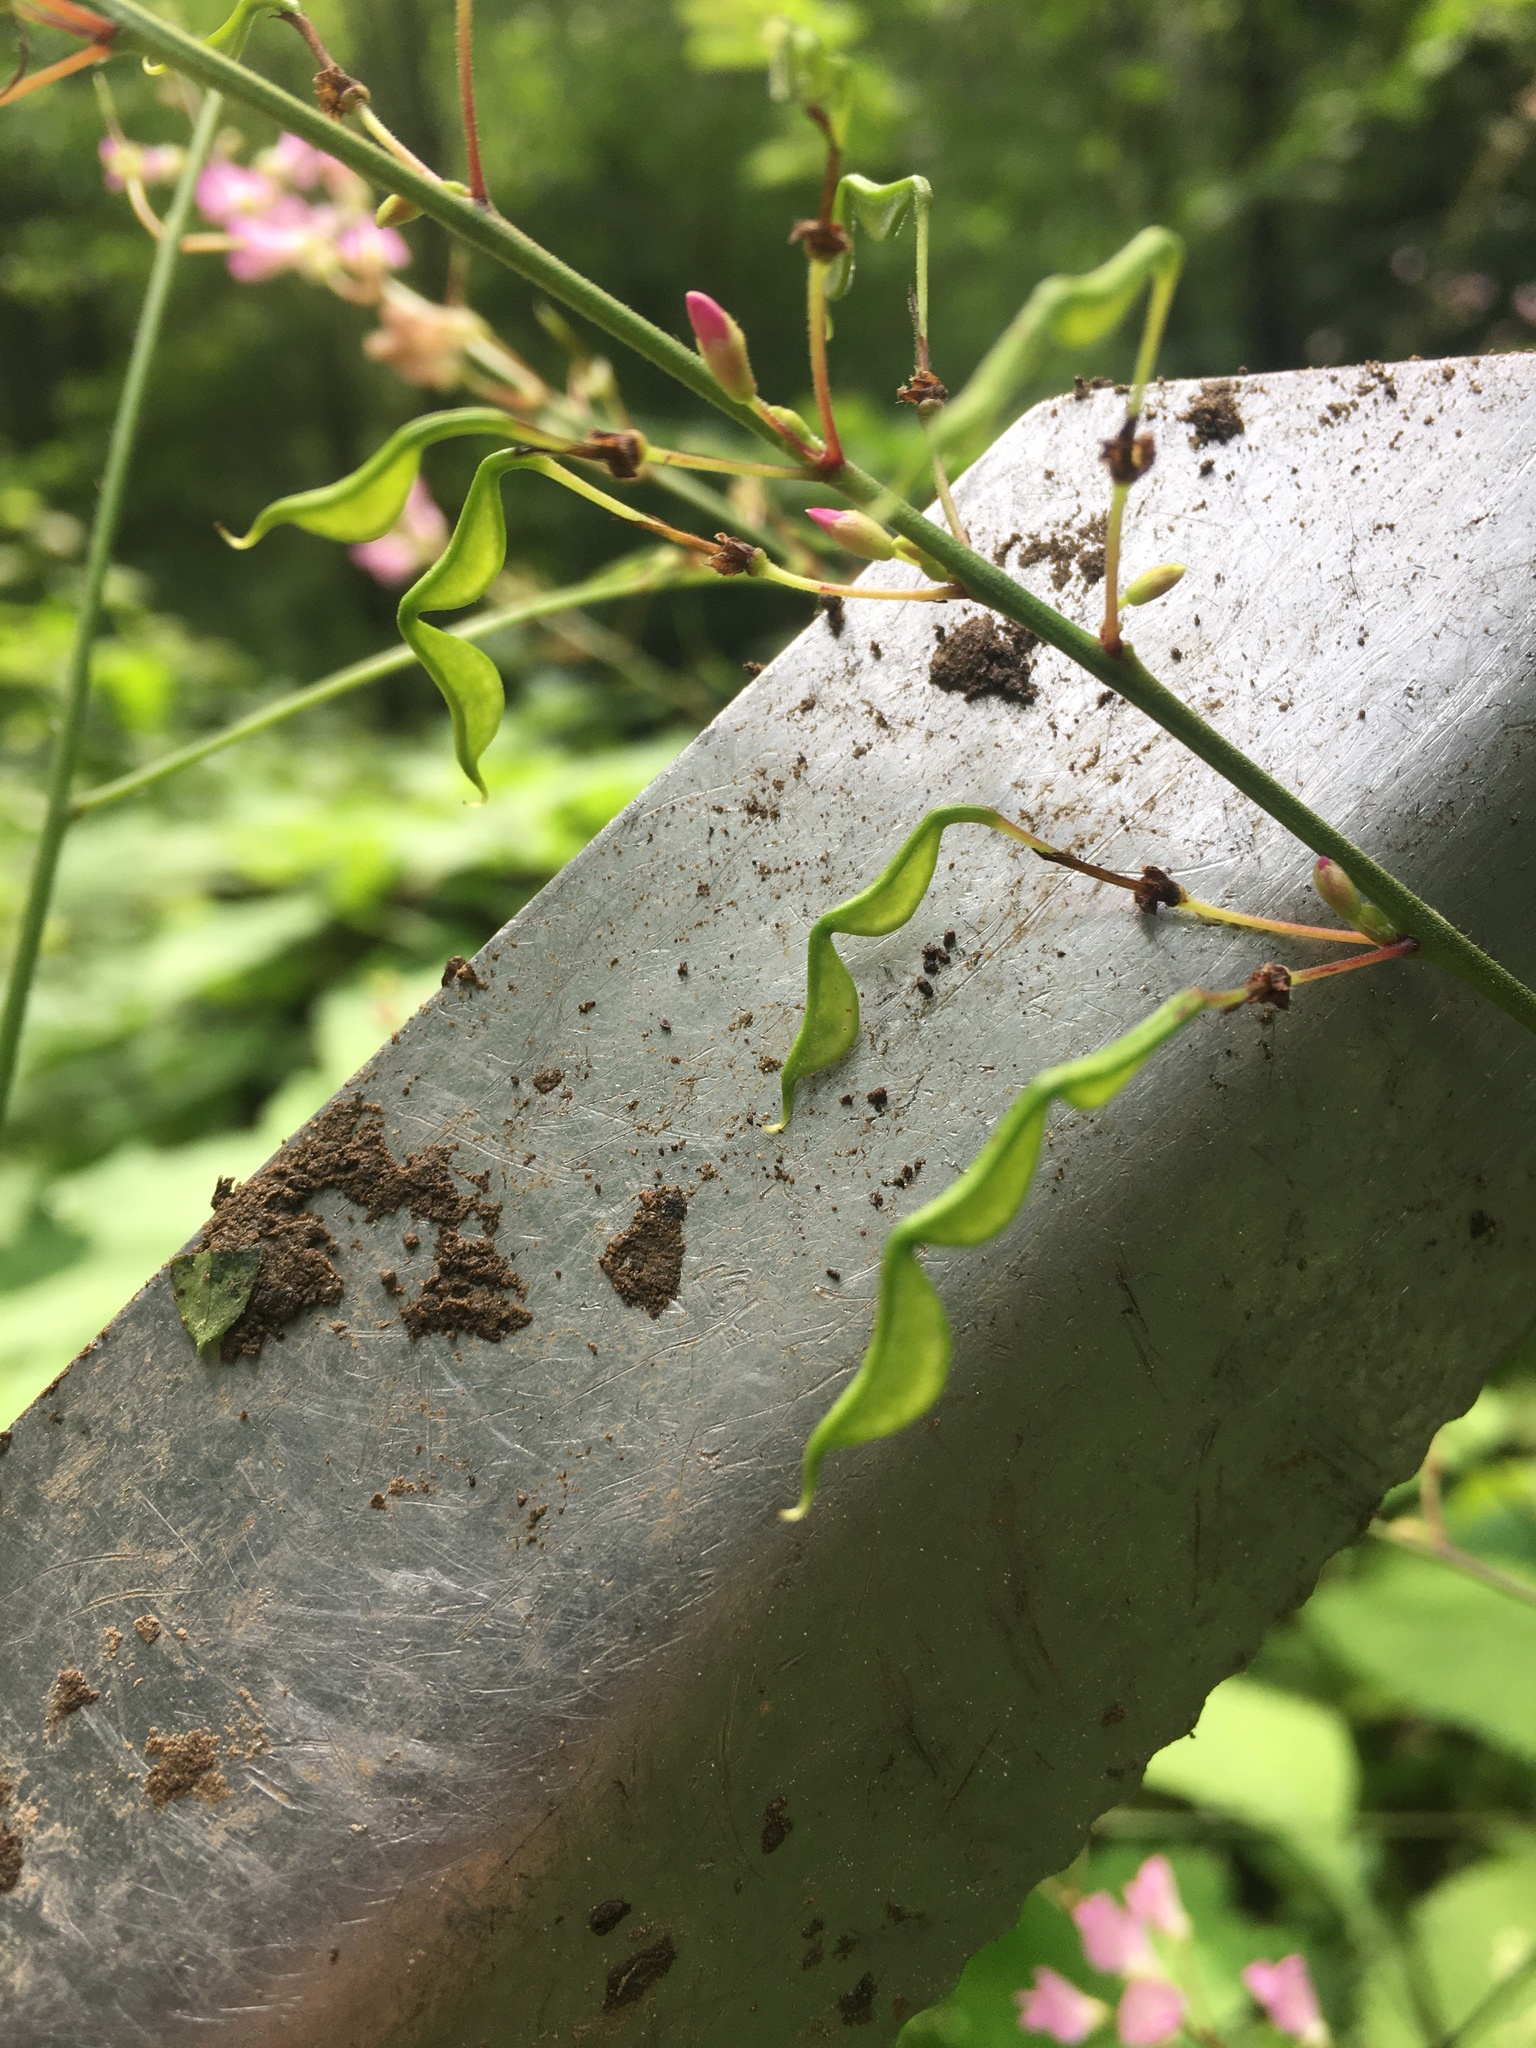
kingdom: Plantae
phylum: Tracheophyta
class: Magnoliopsida
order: Fabales
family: Fabaceae
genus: Hylodesmum
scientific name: Hylodesmum glutinosum
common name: Clustered-leaved tick-trefoil
